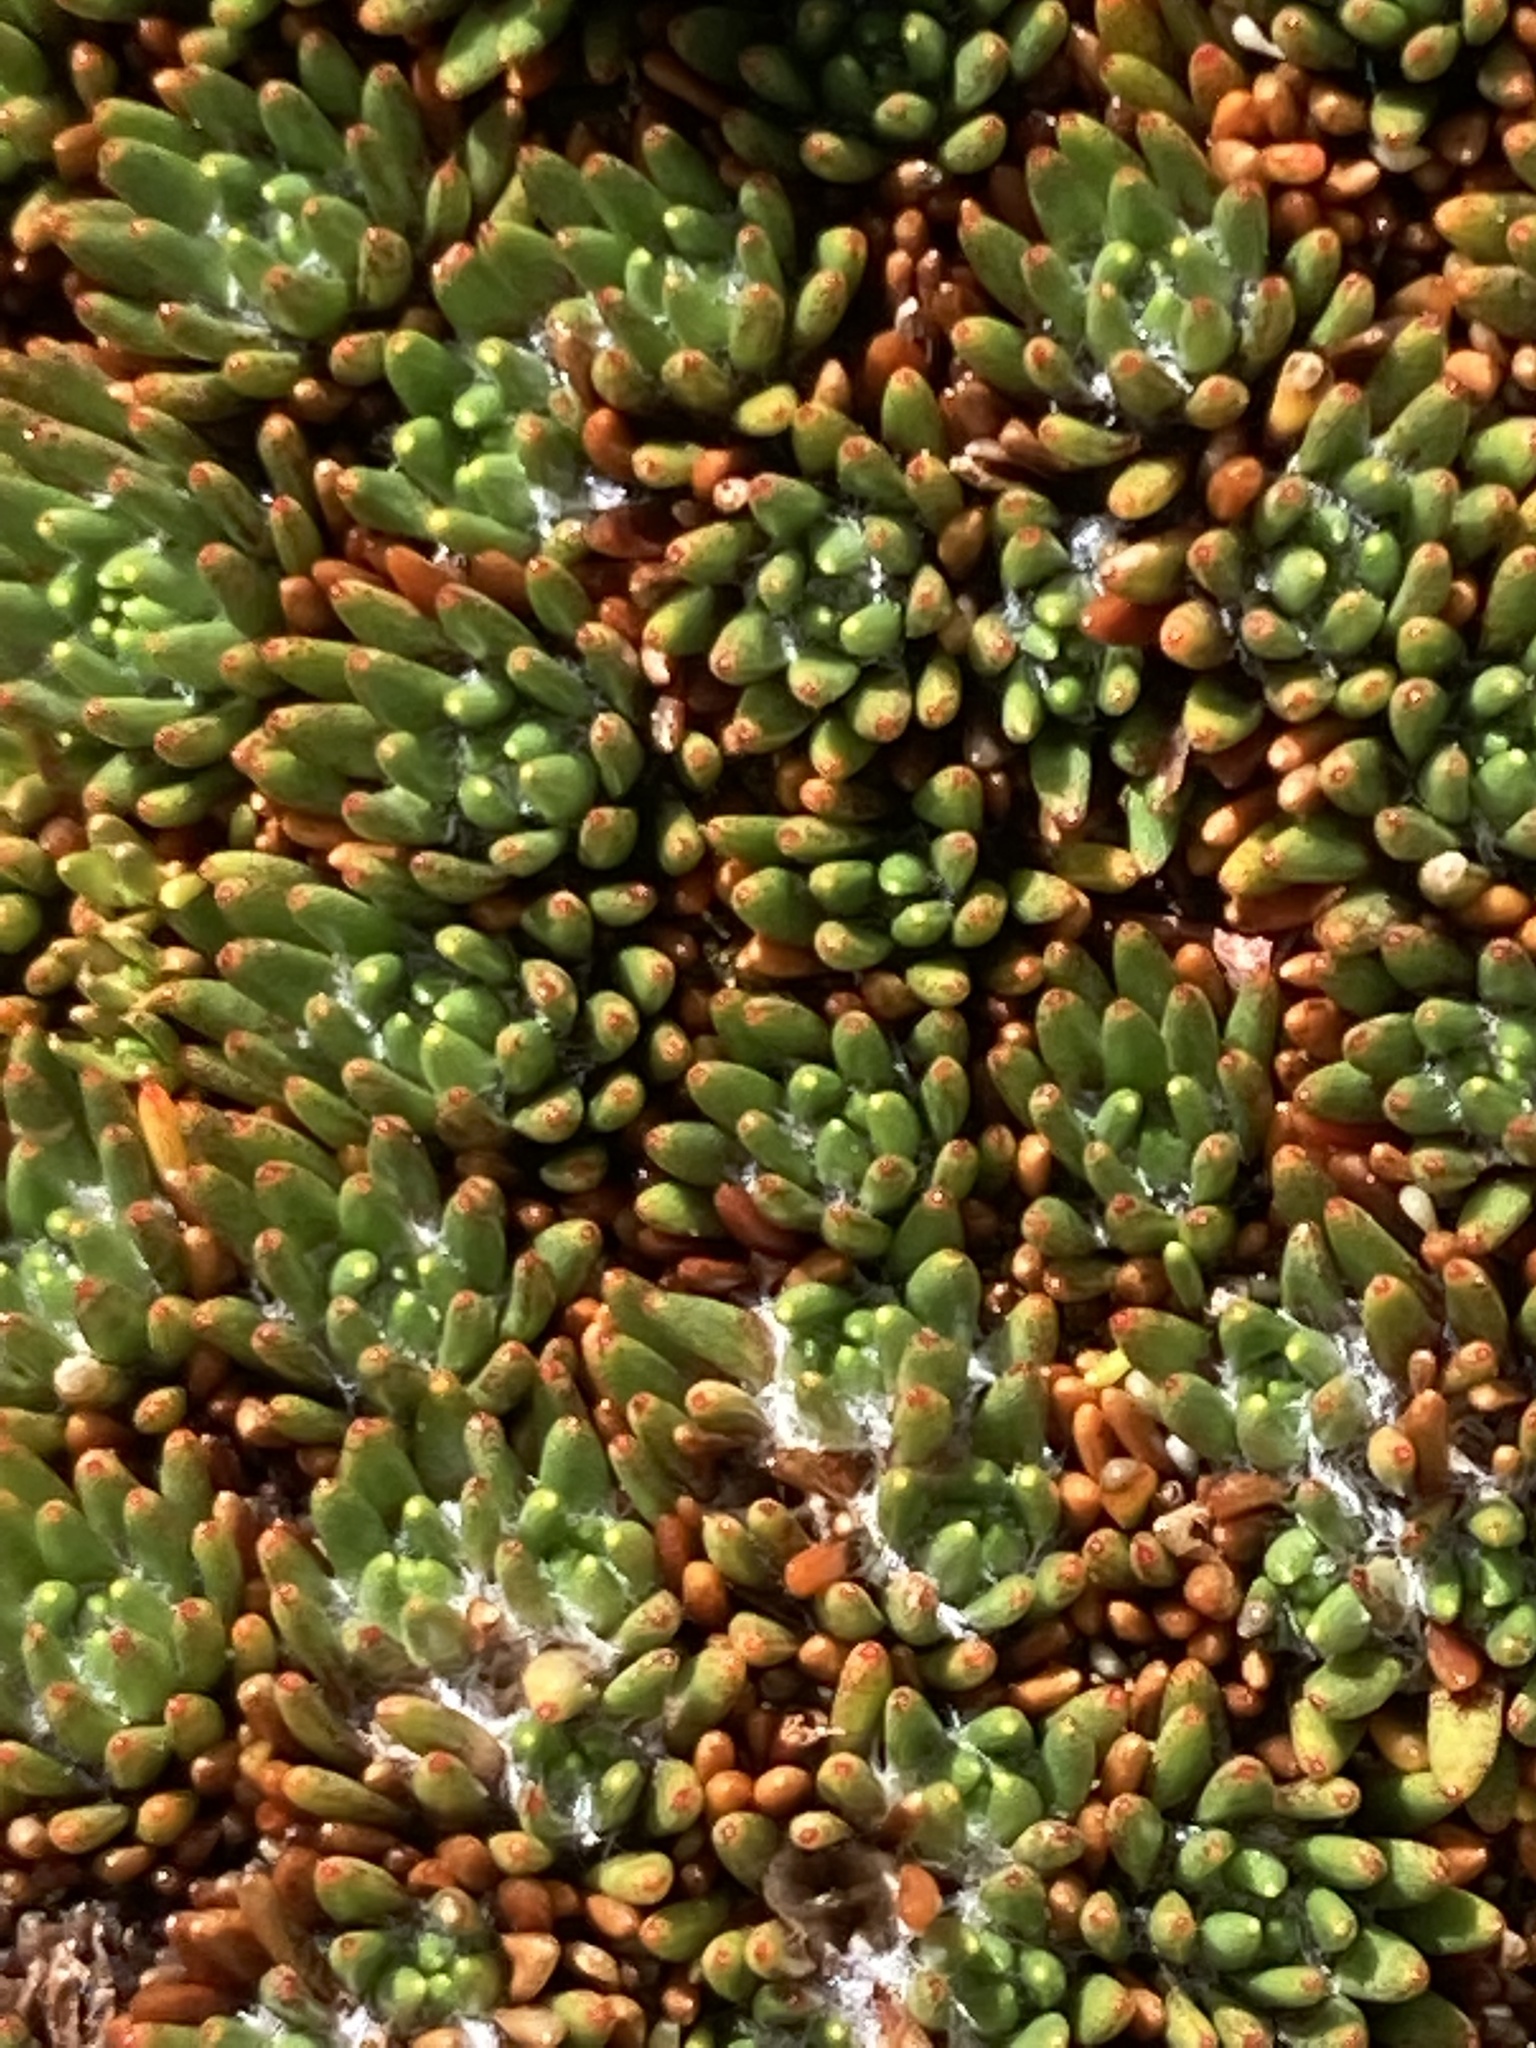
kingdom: Plantae
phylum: Tracheophyta
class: Magnoliopsida
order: Asterales
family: Stylidiaceae
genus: Donatia
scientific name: Donatia novae-zelandiae
